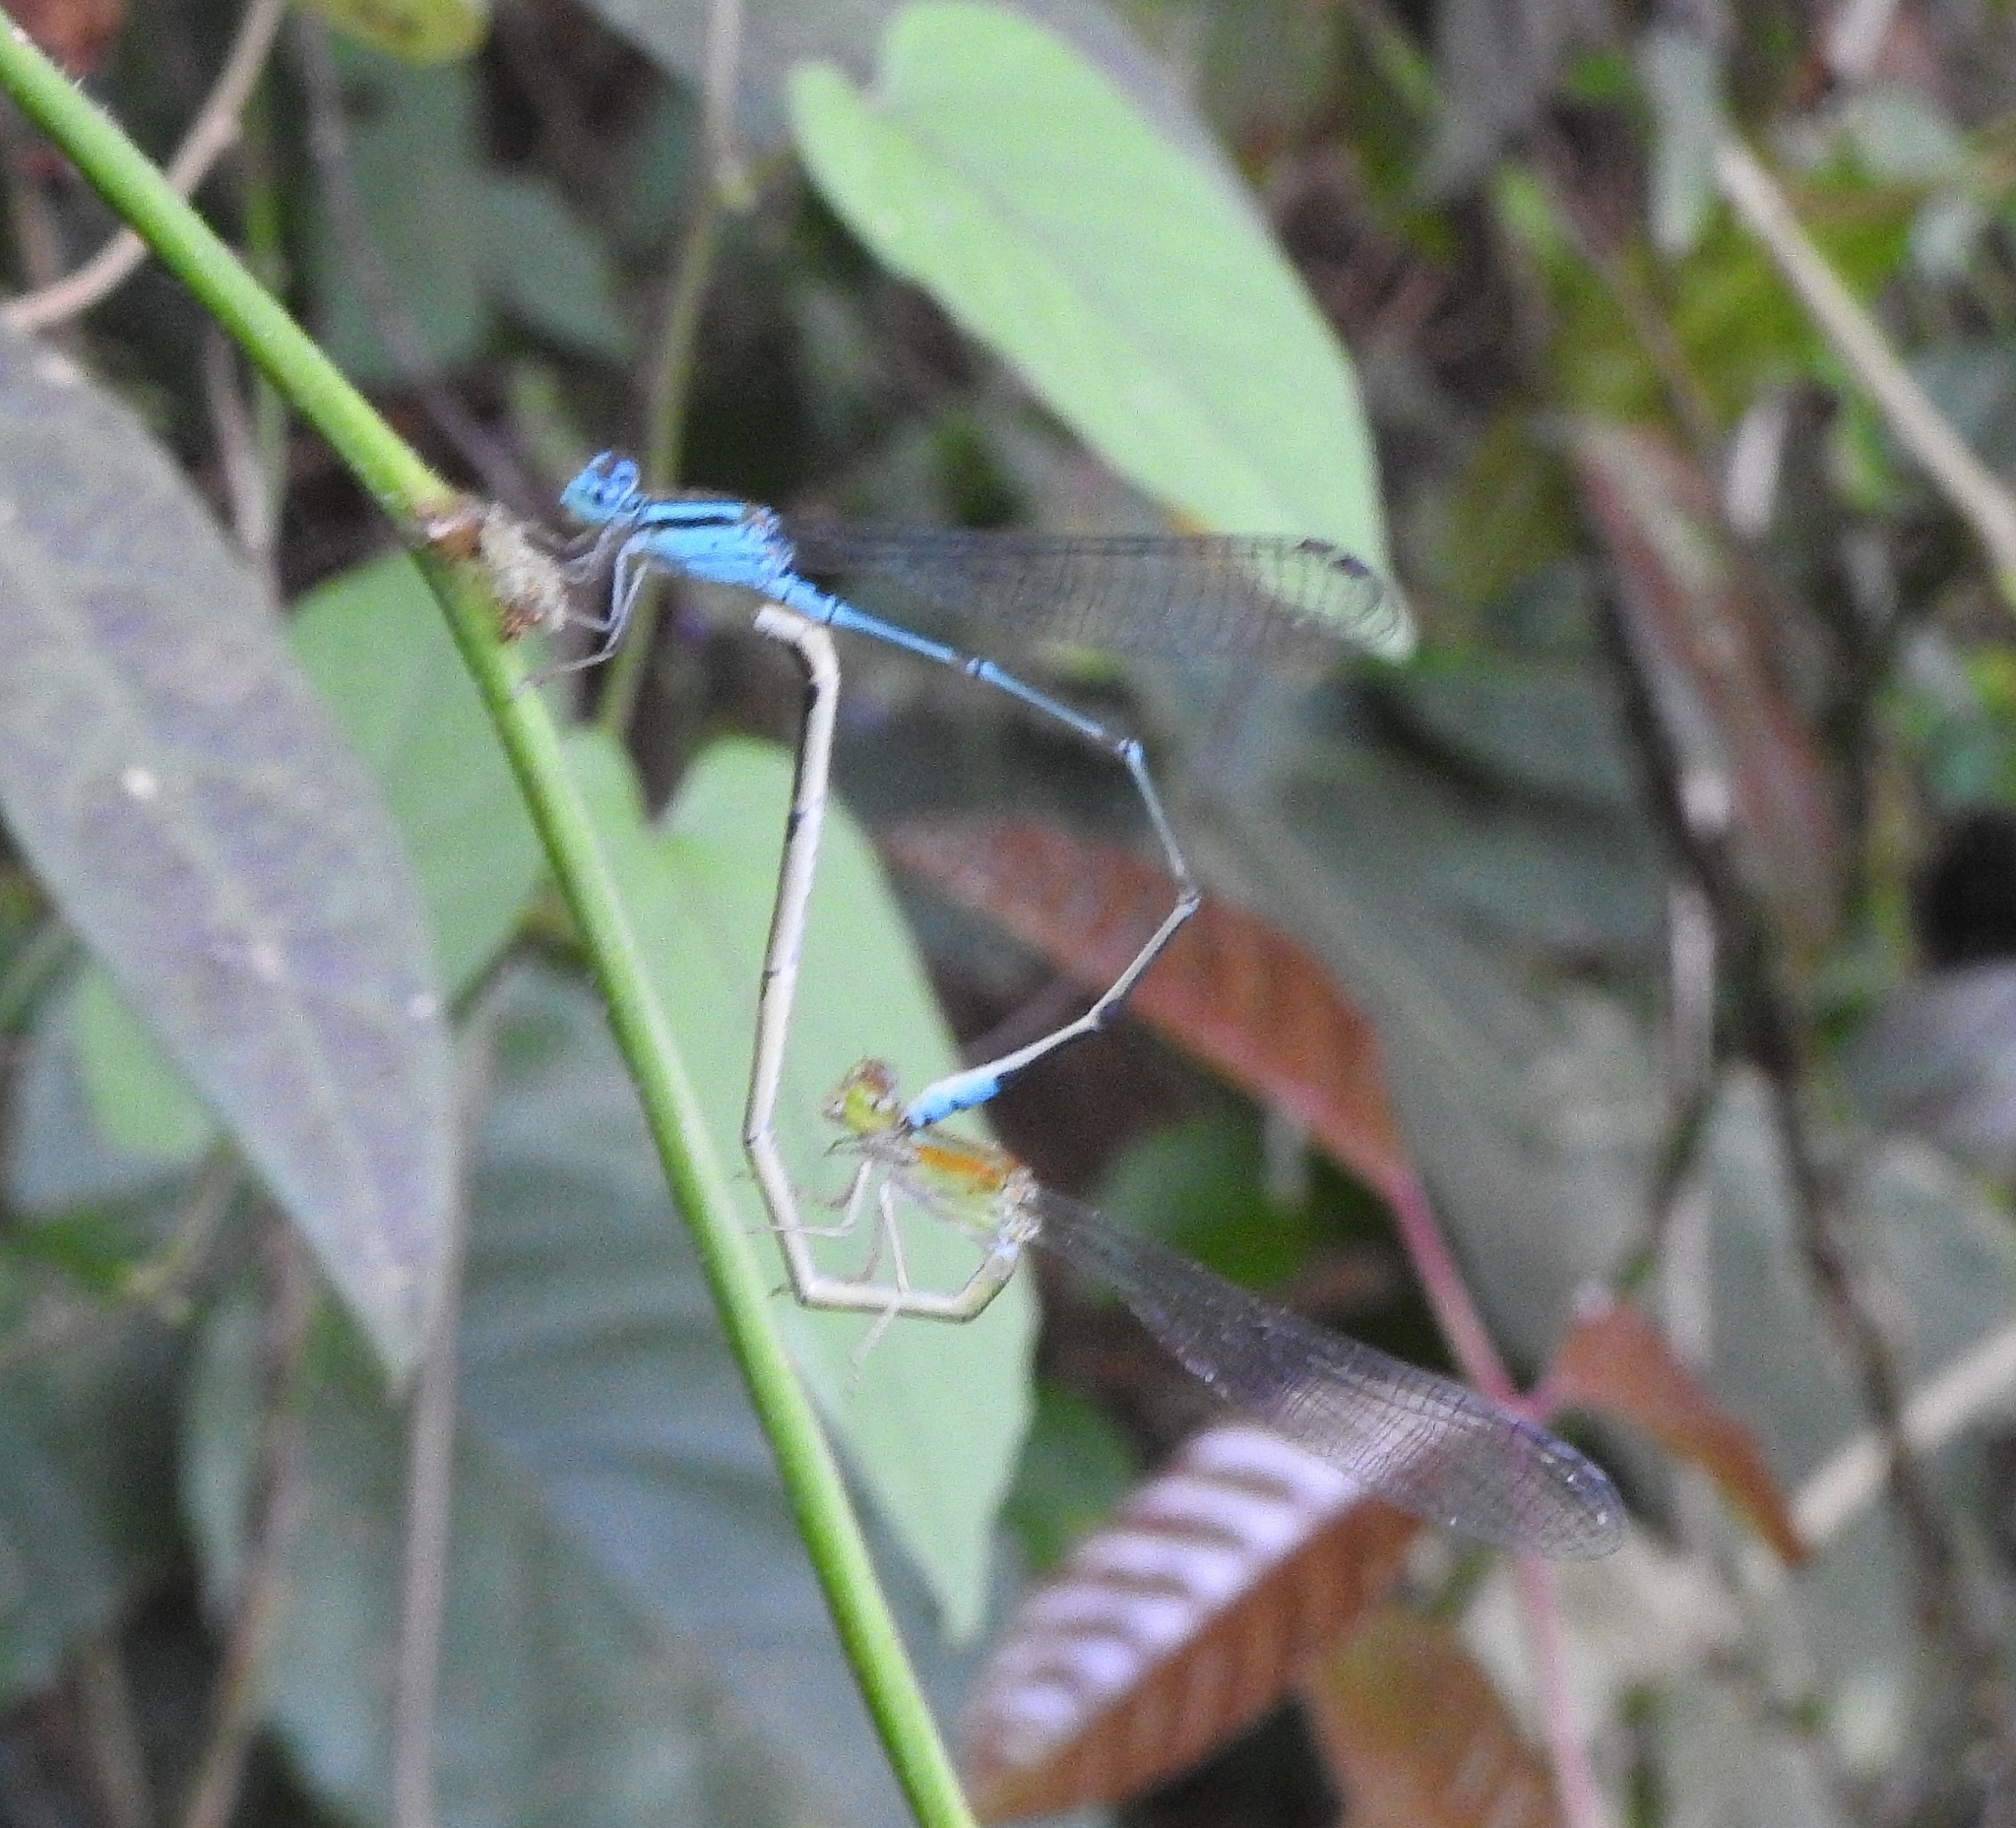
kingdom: Animalia
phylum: Arthropoda
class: Insecta
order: Odonata
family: Coenagrionidae
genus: Pseudagrion
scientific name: Pseudagrion microcephalum
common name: Blue riverdamsel
